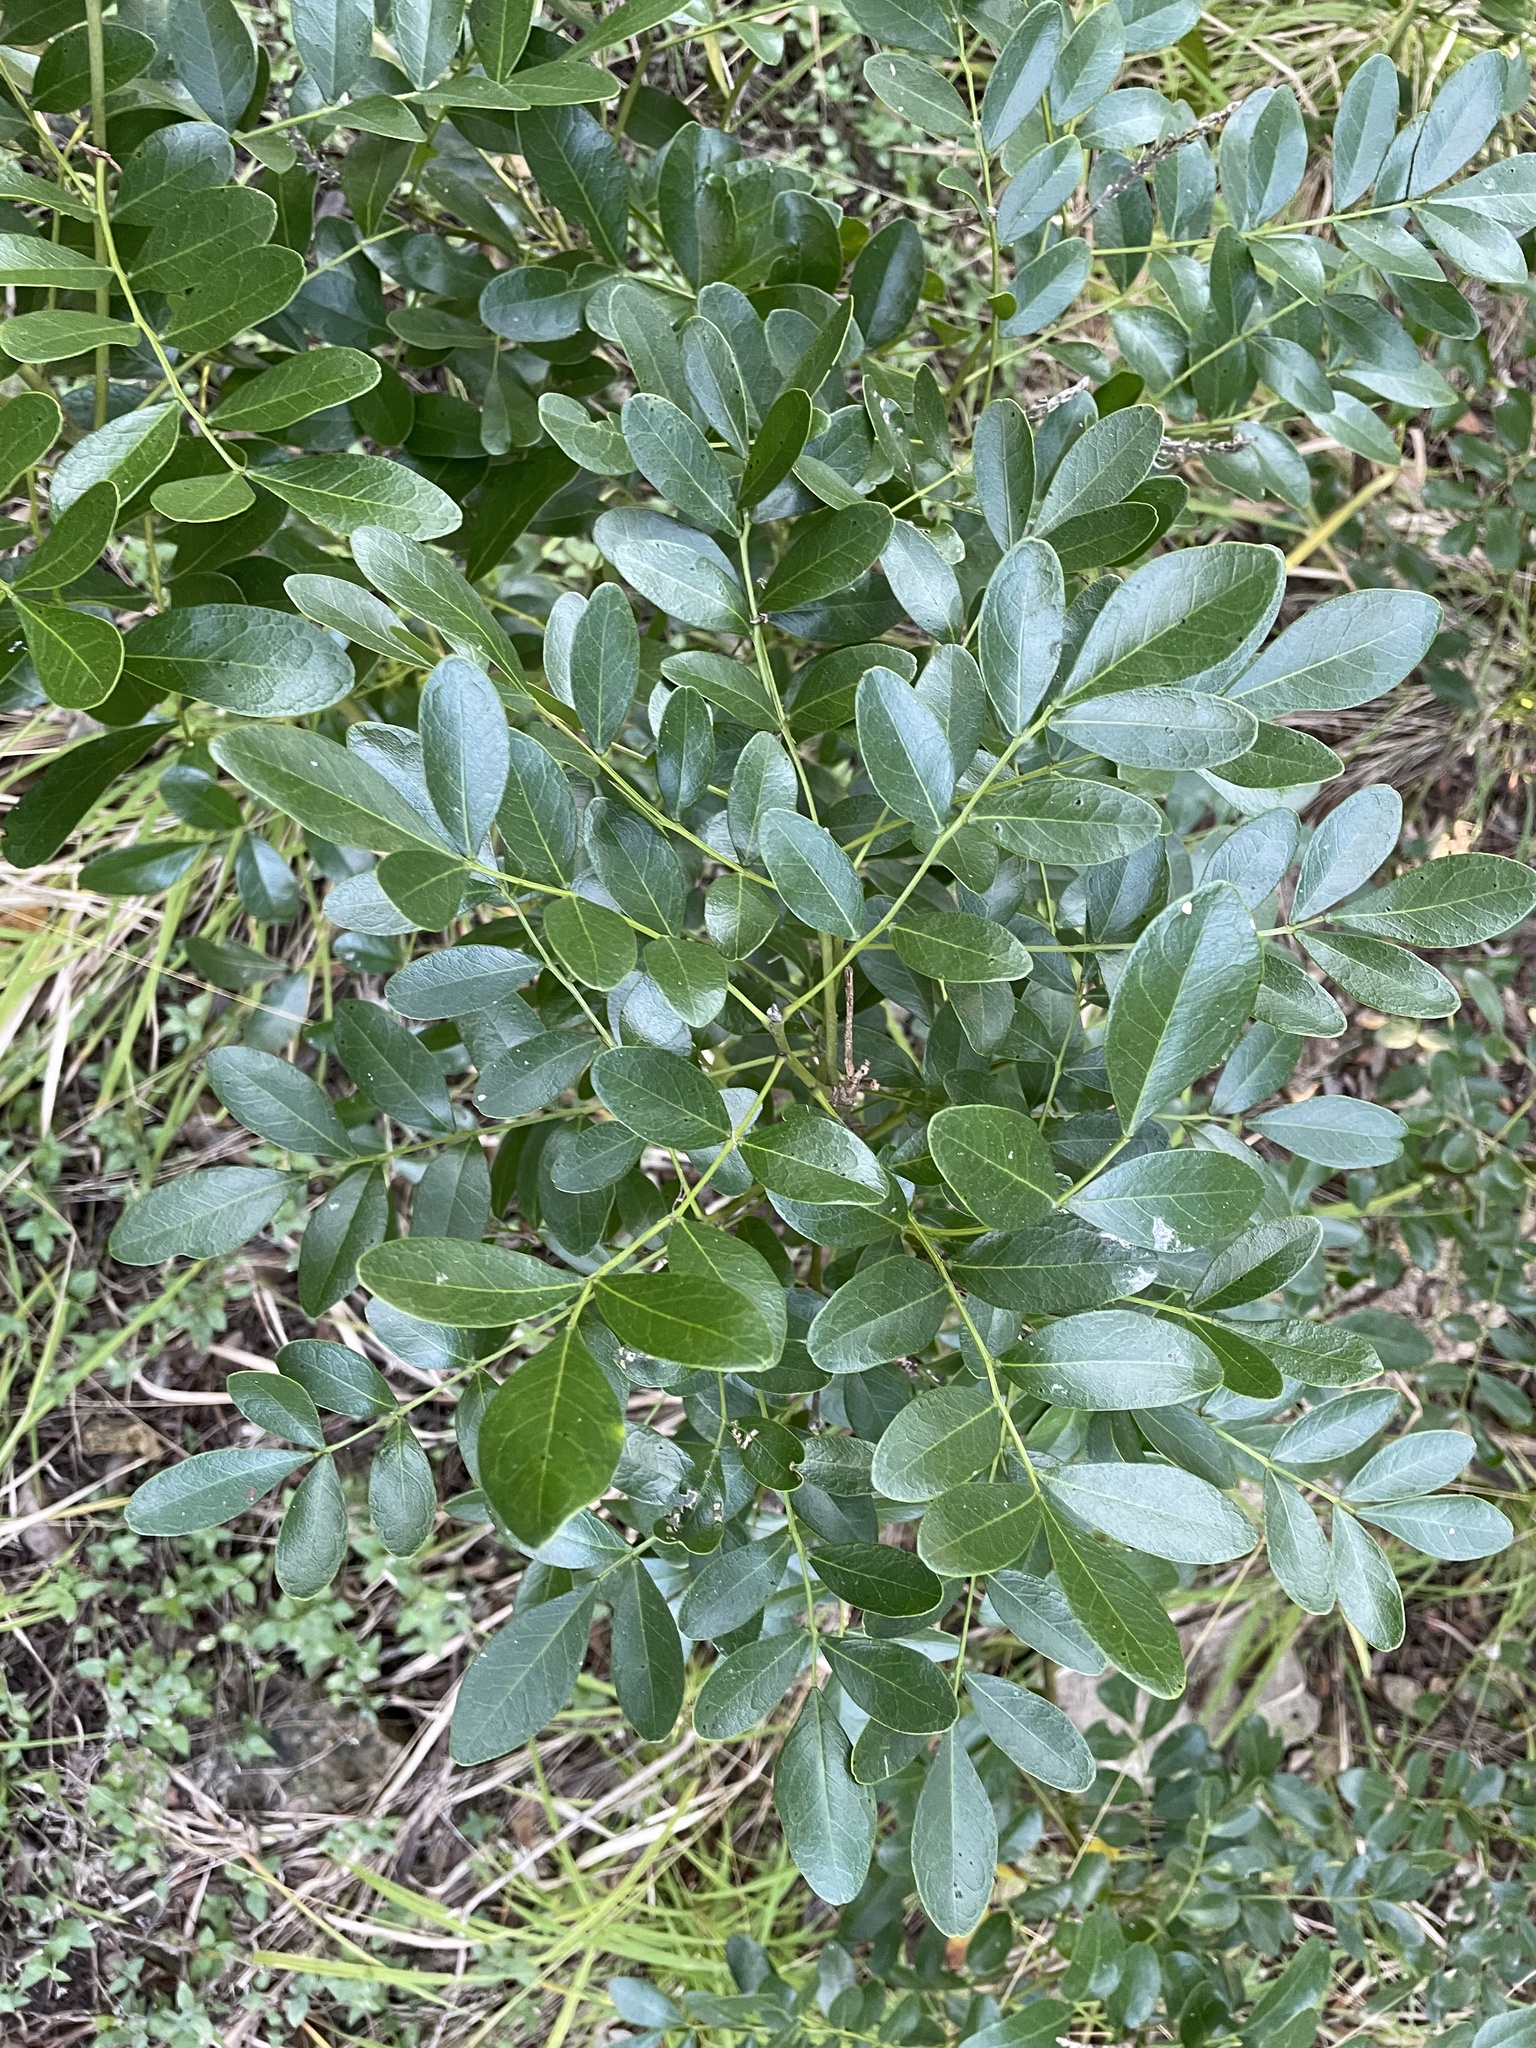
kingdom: Plantae
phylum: Tracheophyta
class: Magnoliopsida
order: Fabales
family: Fabaceae
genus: Dermatophyllum
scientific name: Dermatophyllum secundiflorum
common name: Texas-mountain-laurel
